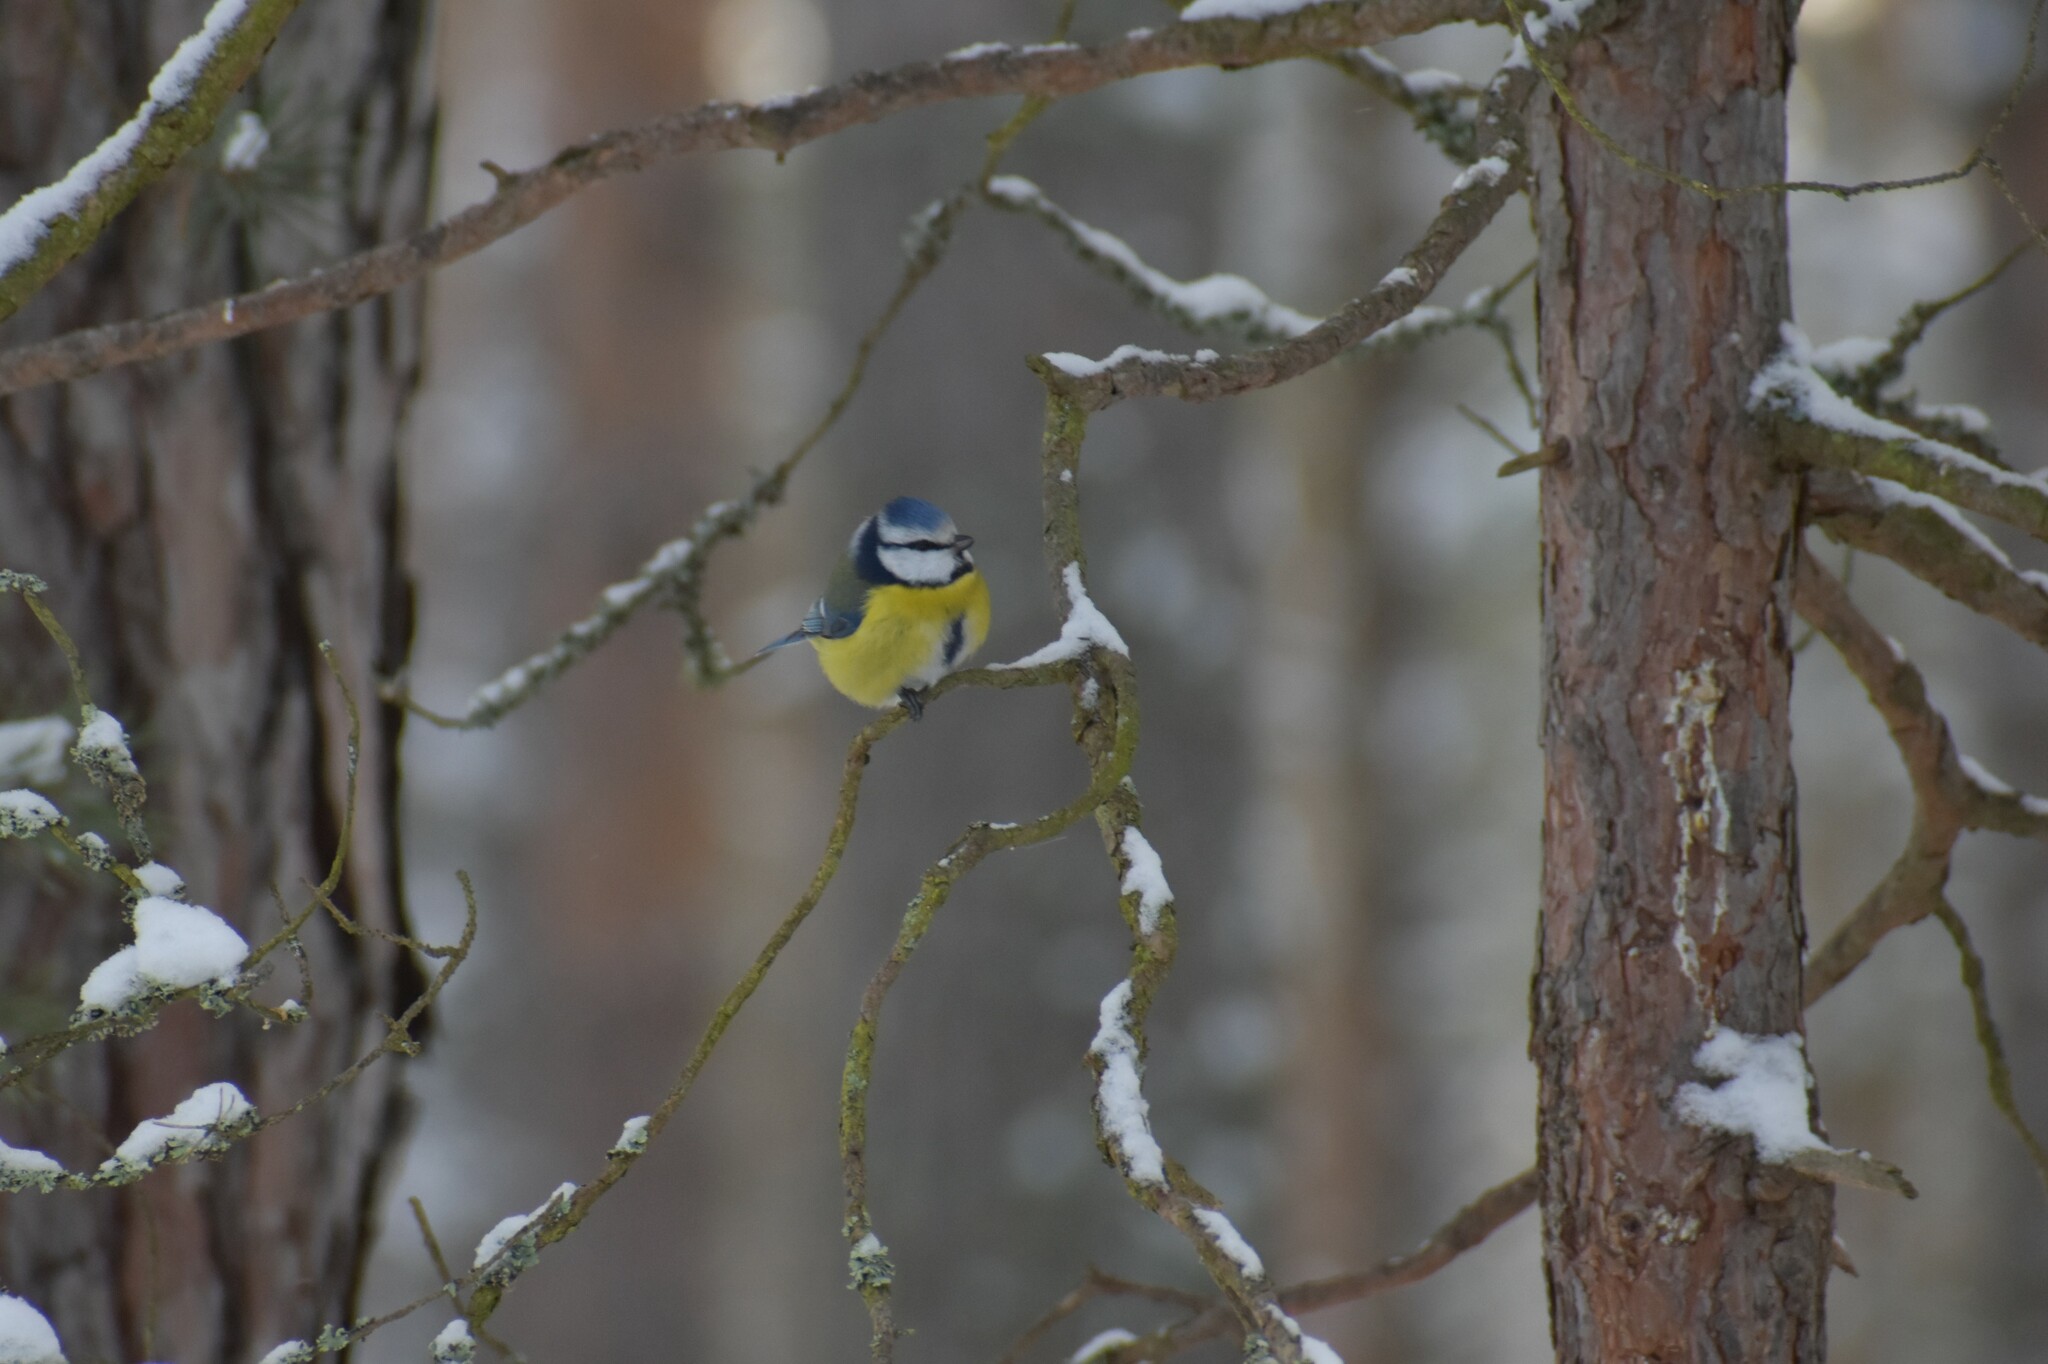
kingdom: Animalia
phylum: Chordata
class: Aves
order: Passeriformes
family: Paridae
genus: Cyanistes
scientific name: Cyanistes caeruleus
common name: Eurasian blue tit
